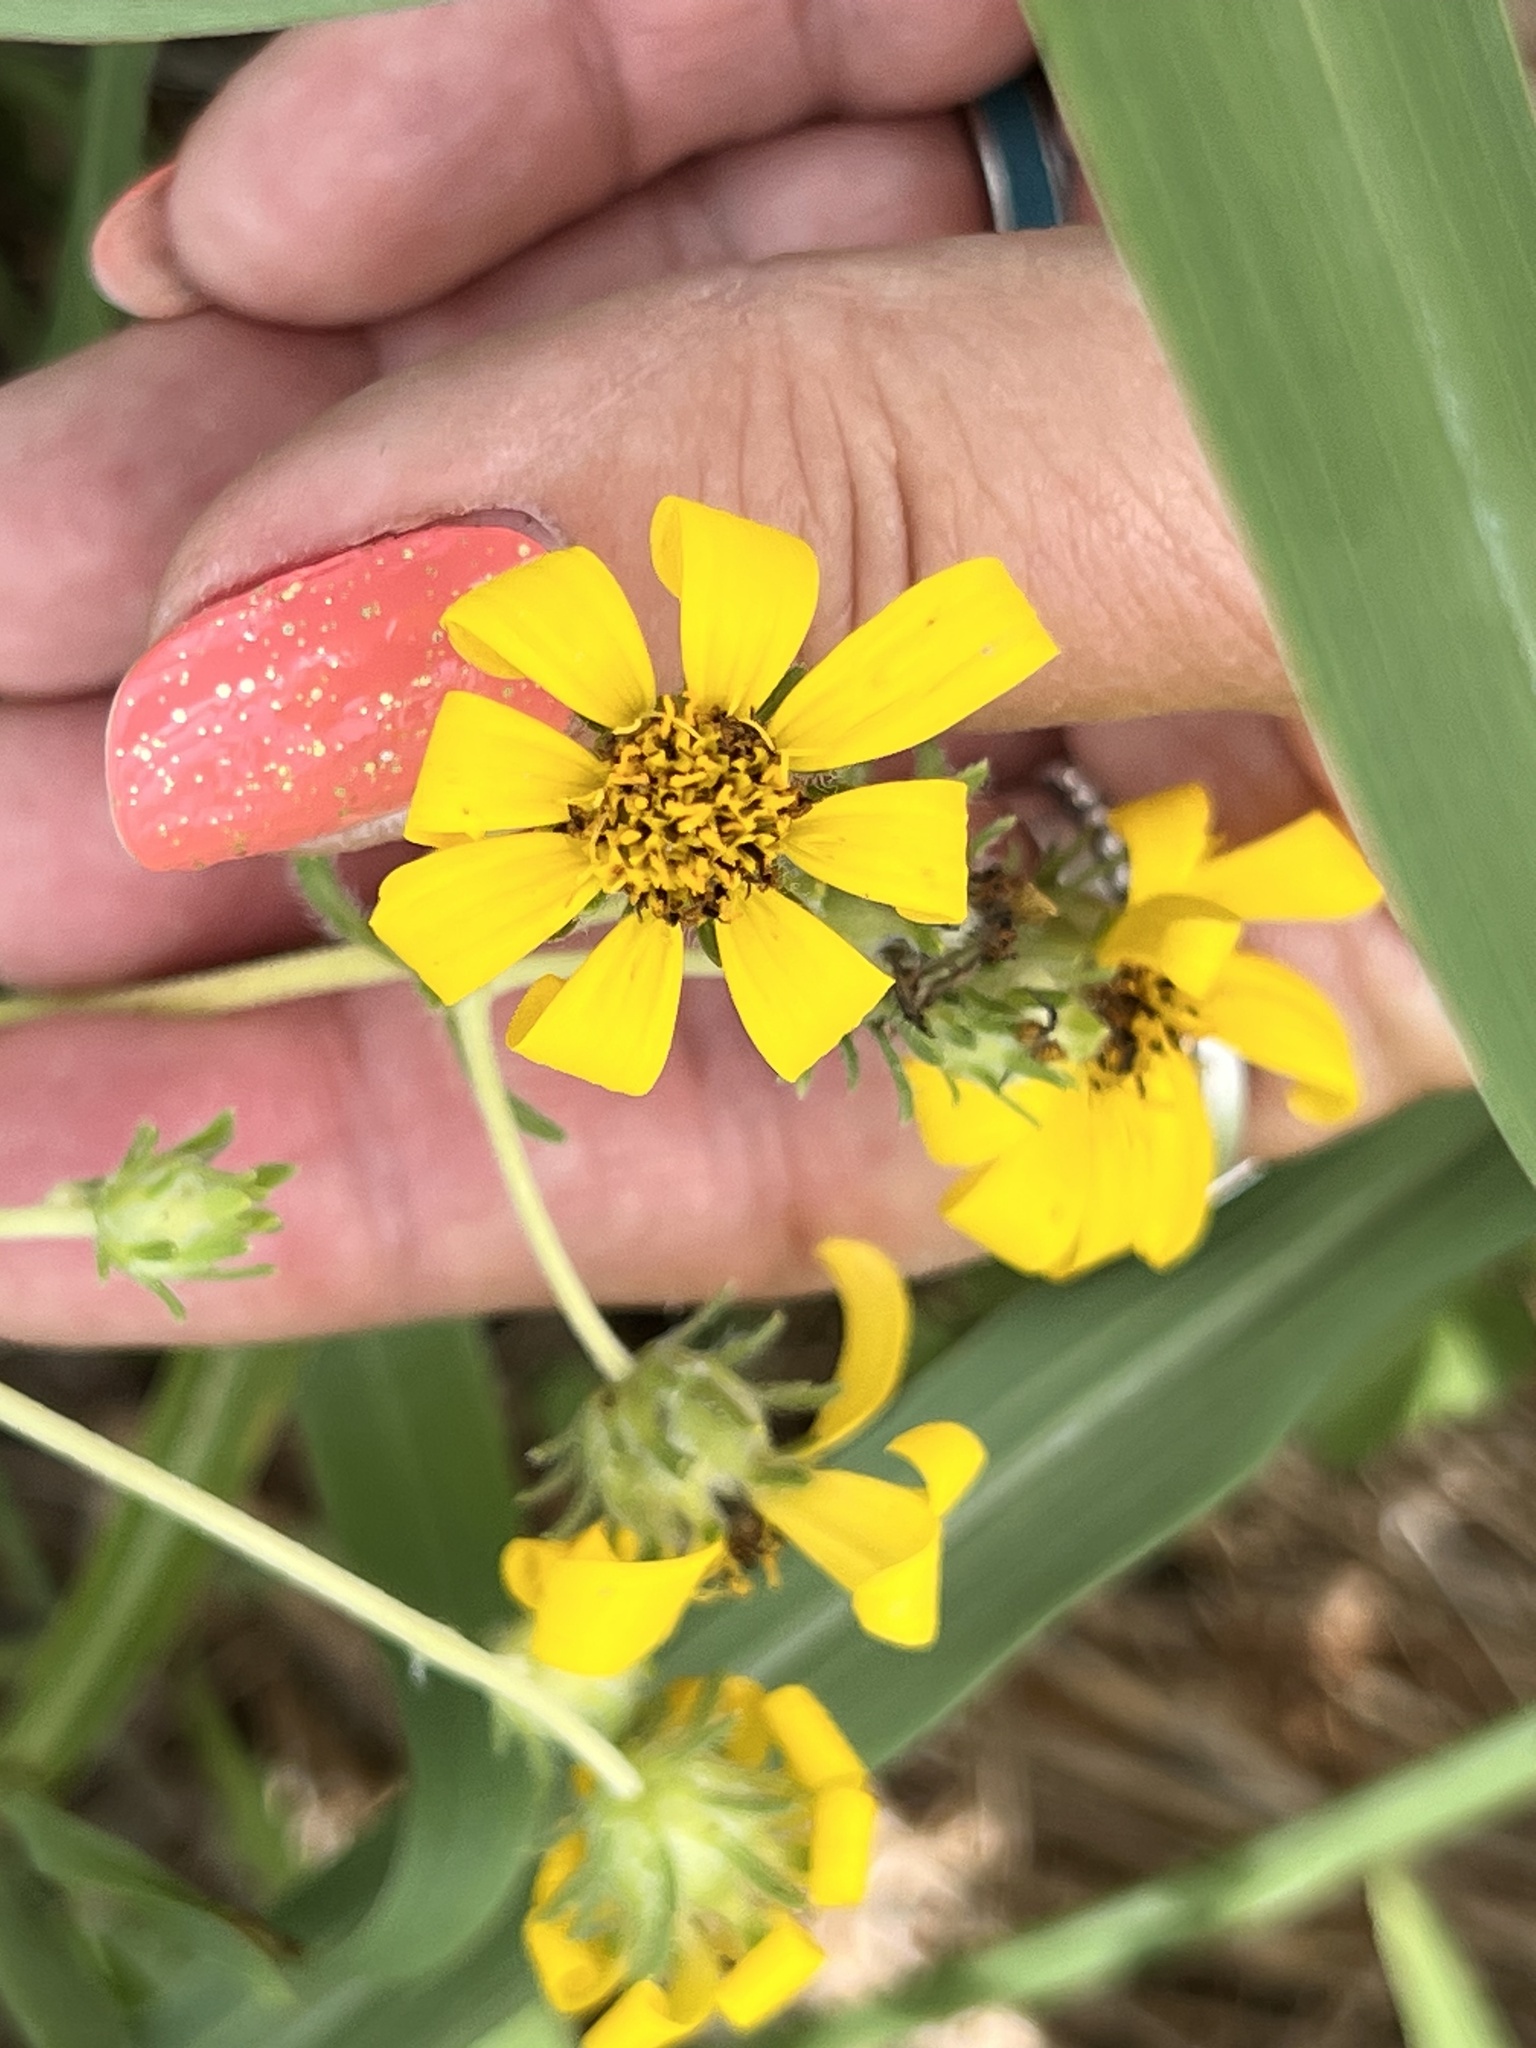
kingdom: Plantae
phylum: Tracheophyta
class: Magnoliopsida
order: Asterales
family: Asteraceae
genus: Engelmannia
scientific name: Engelmannia peristenia
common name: Engelmann's daisy
